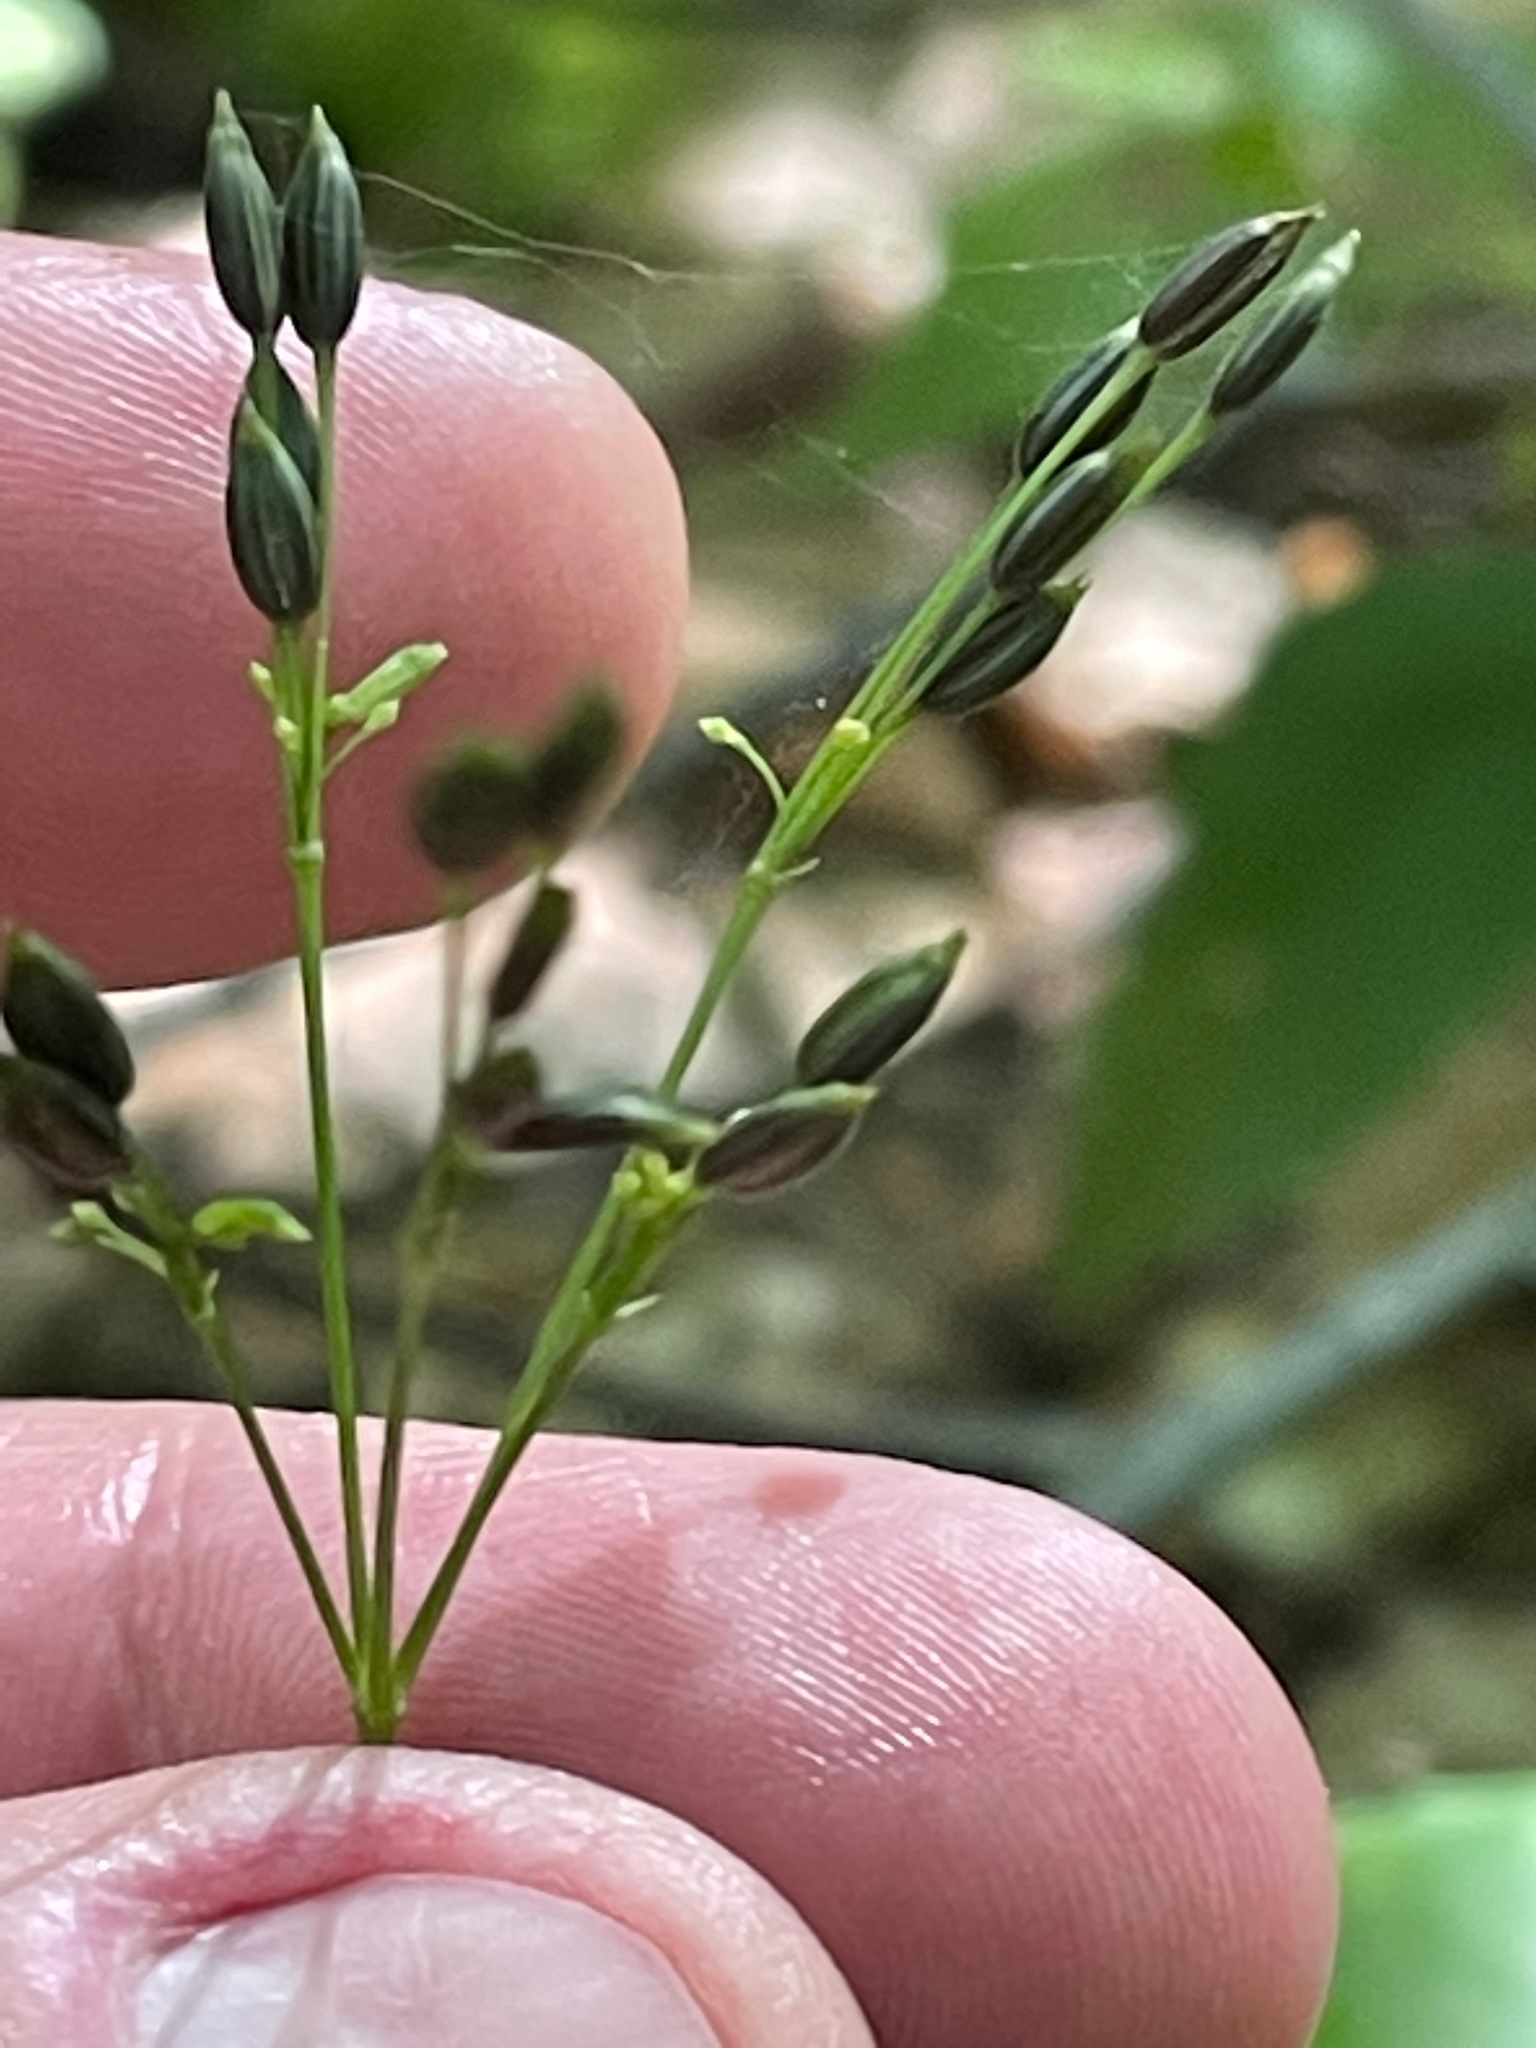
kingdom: Plantae
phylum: Tracheophyta
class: Magnoliopsida
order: Apiales
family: Apiaceae
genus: Cryptotaenia
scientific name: Cryptotaenia canadensis
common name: Honewort
